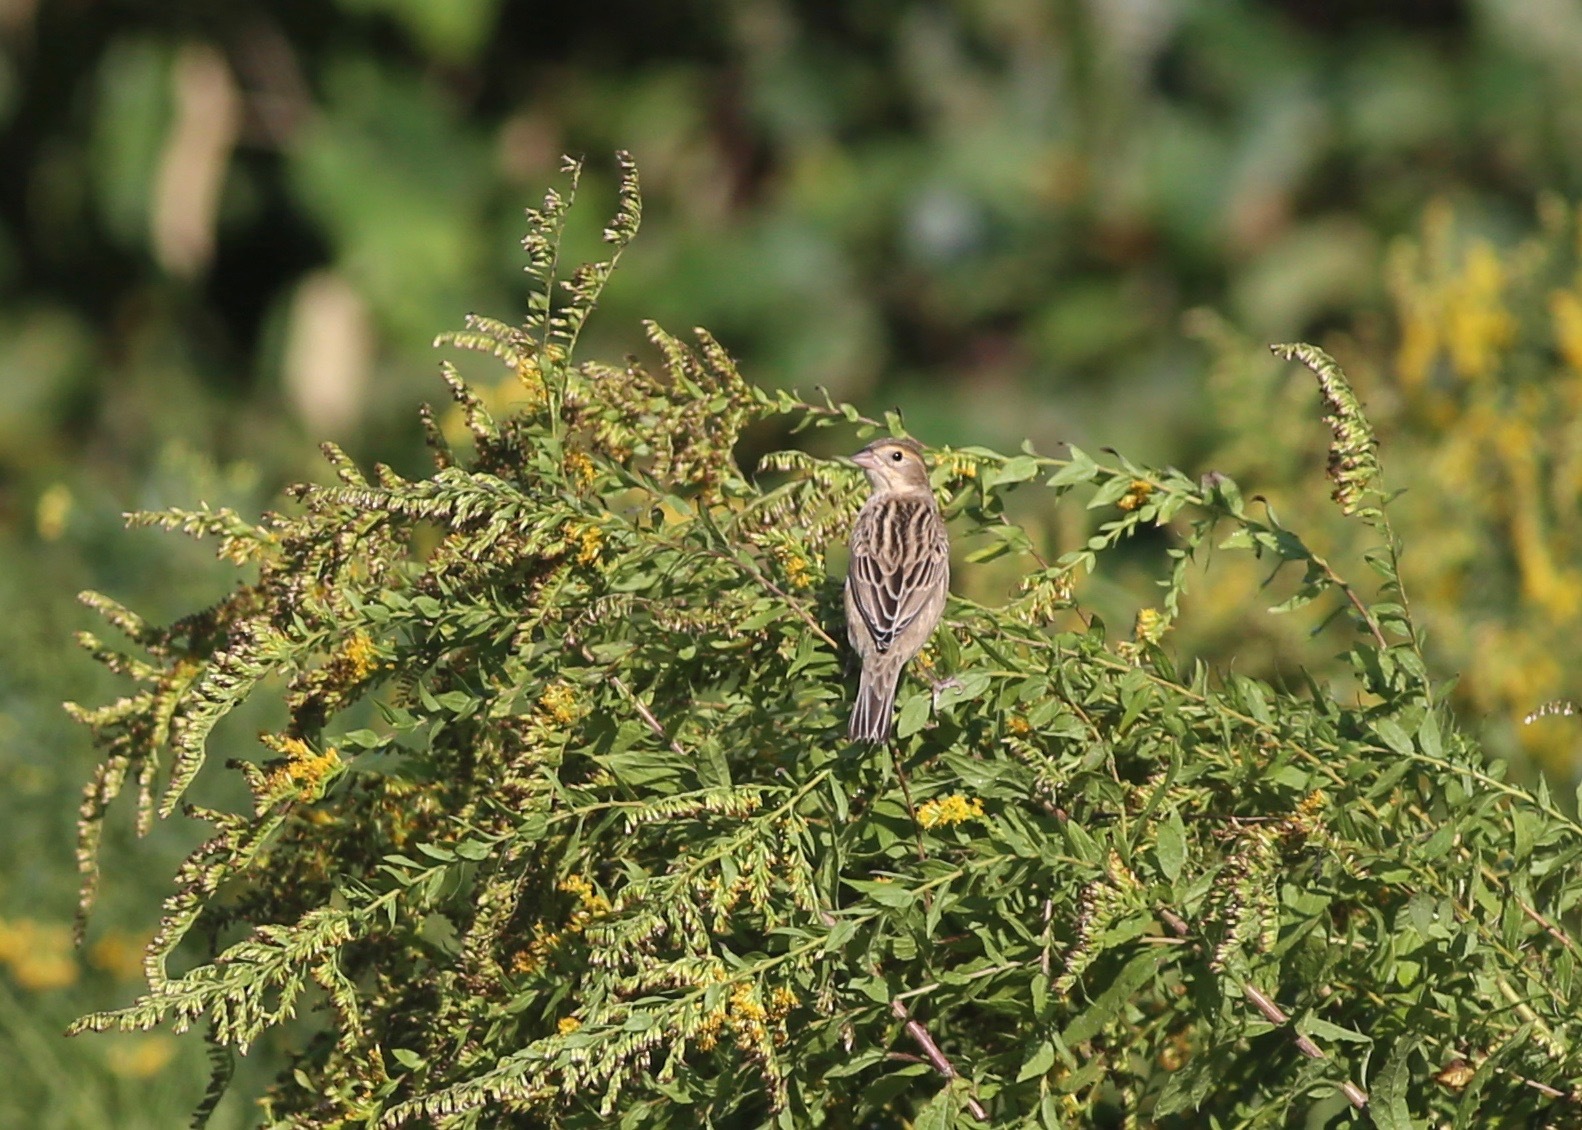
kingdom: Animalia
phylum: Chordata
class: Aves
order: Passeriformes
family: Cardinalidae
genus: Spiza
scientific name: Spiza americana
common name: Dickcissel
